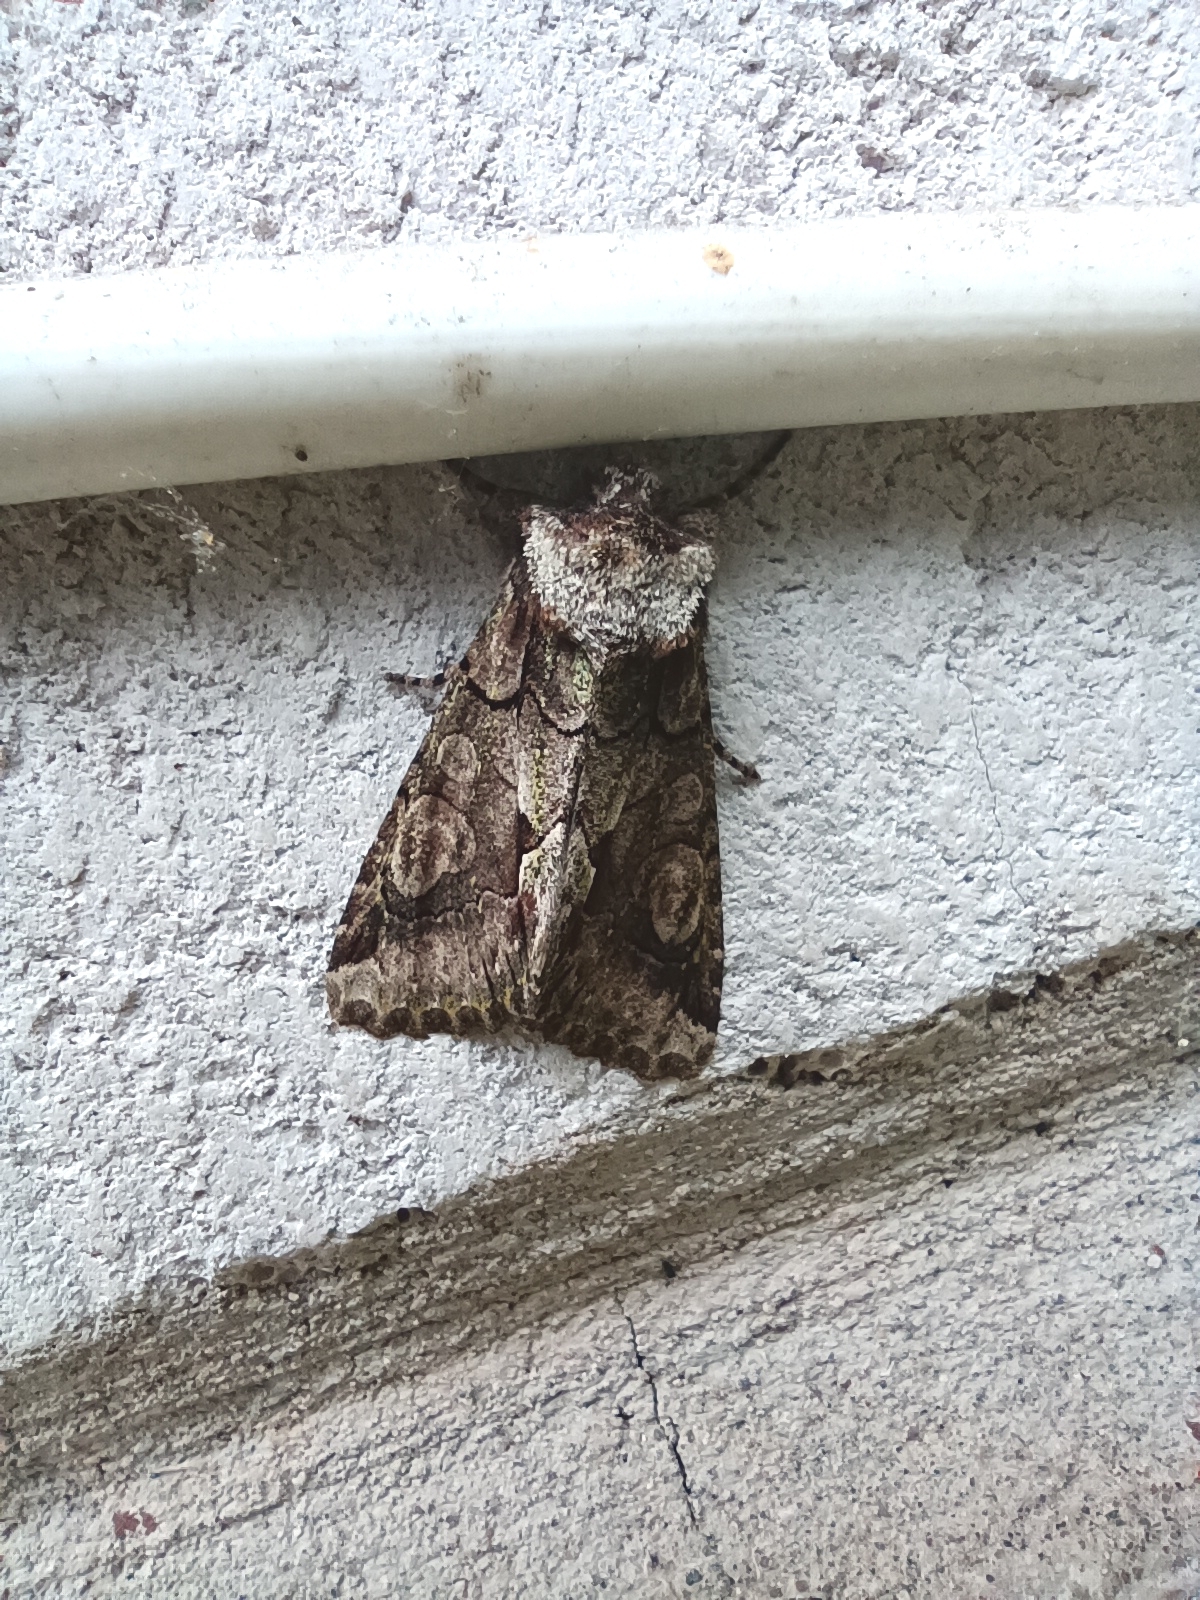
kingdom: Animalia
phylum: Arthropoda
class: Insecta
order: Lepidoptera
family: Noctuidae
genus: Allophyes
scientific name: Allophyes oxyacanthae
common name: Green-brindled crescent
